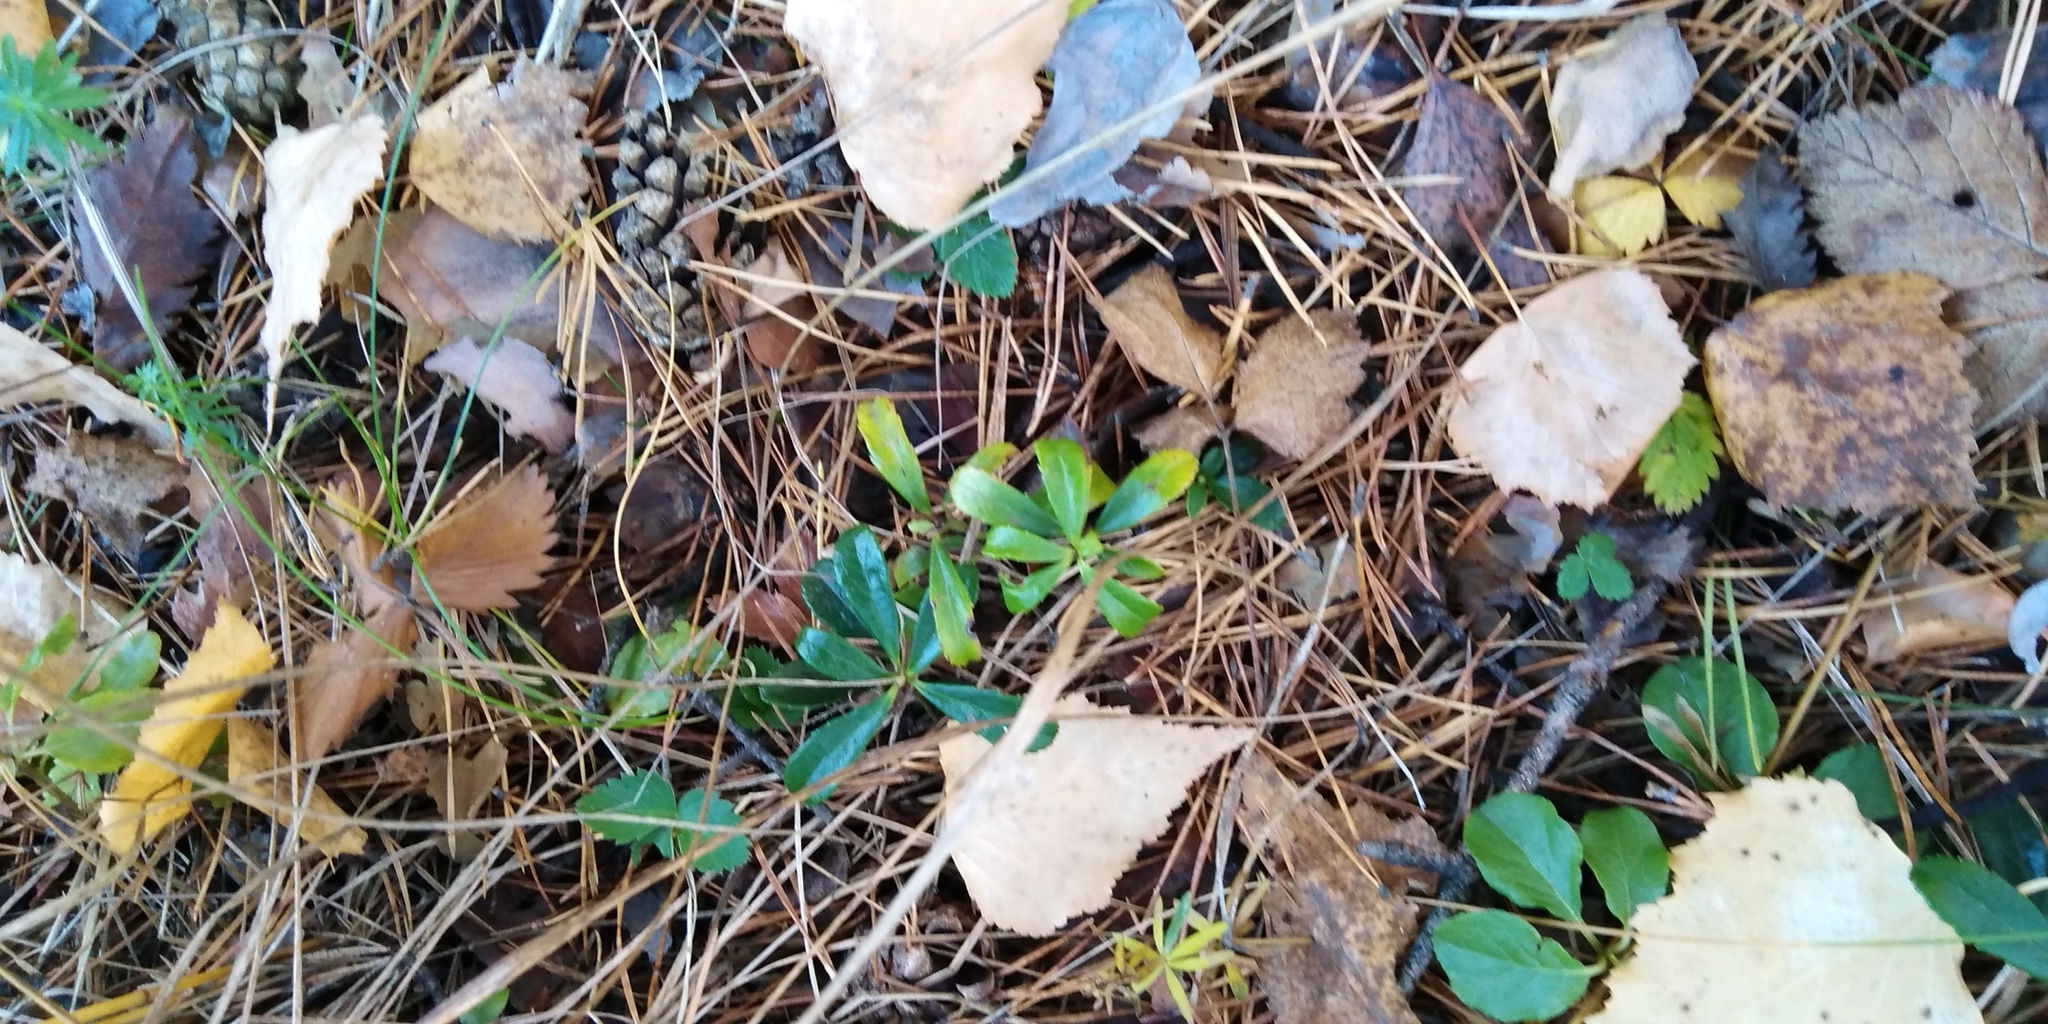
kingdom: Plantae
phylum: Tracheophyta
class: Magnoliopsida
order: Ericales
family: Ericaceae
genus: Chimaphila
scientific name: Chimaphila umbellata
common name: Pipsissewa
